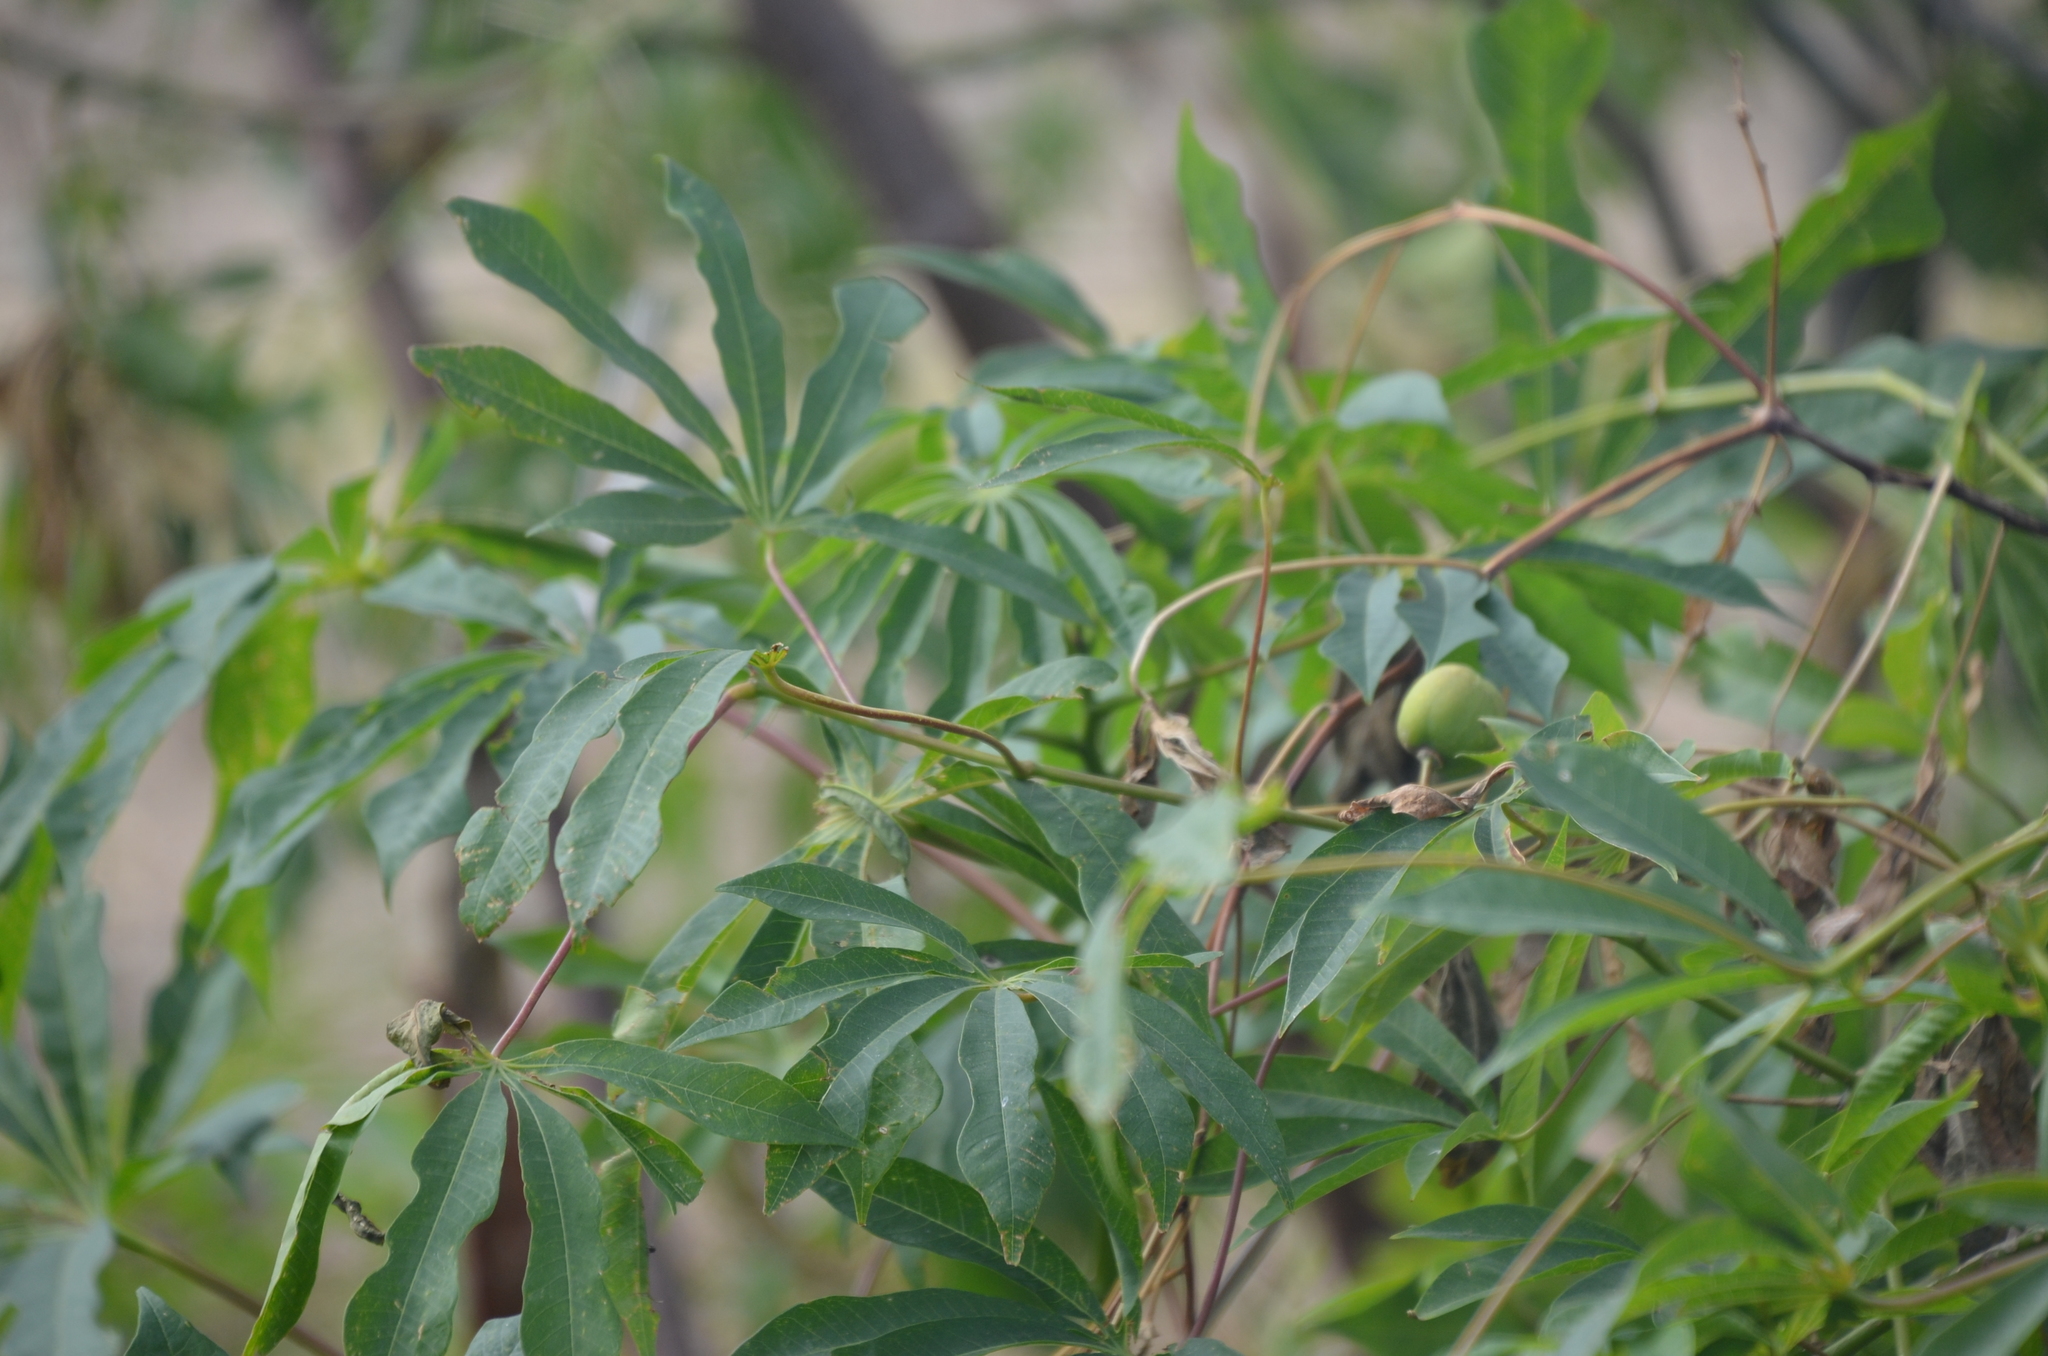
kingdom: Plantae
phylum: Tracheophyta
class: Magnoliopsida
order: Malpighiales
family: Euphorbiaceae
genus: Manihot
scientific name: Manihot grahamii
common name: Graham's manihot
